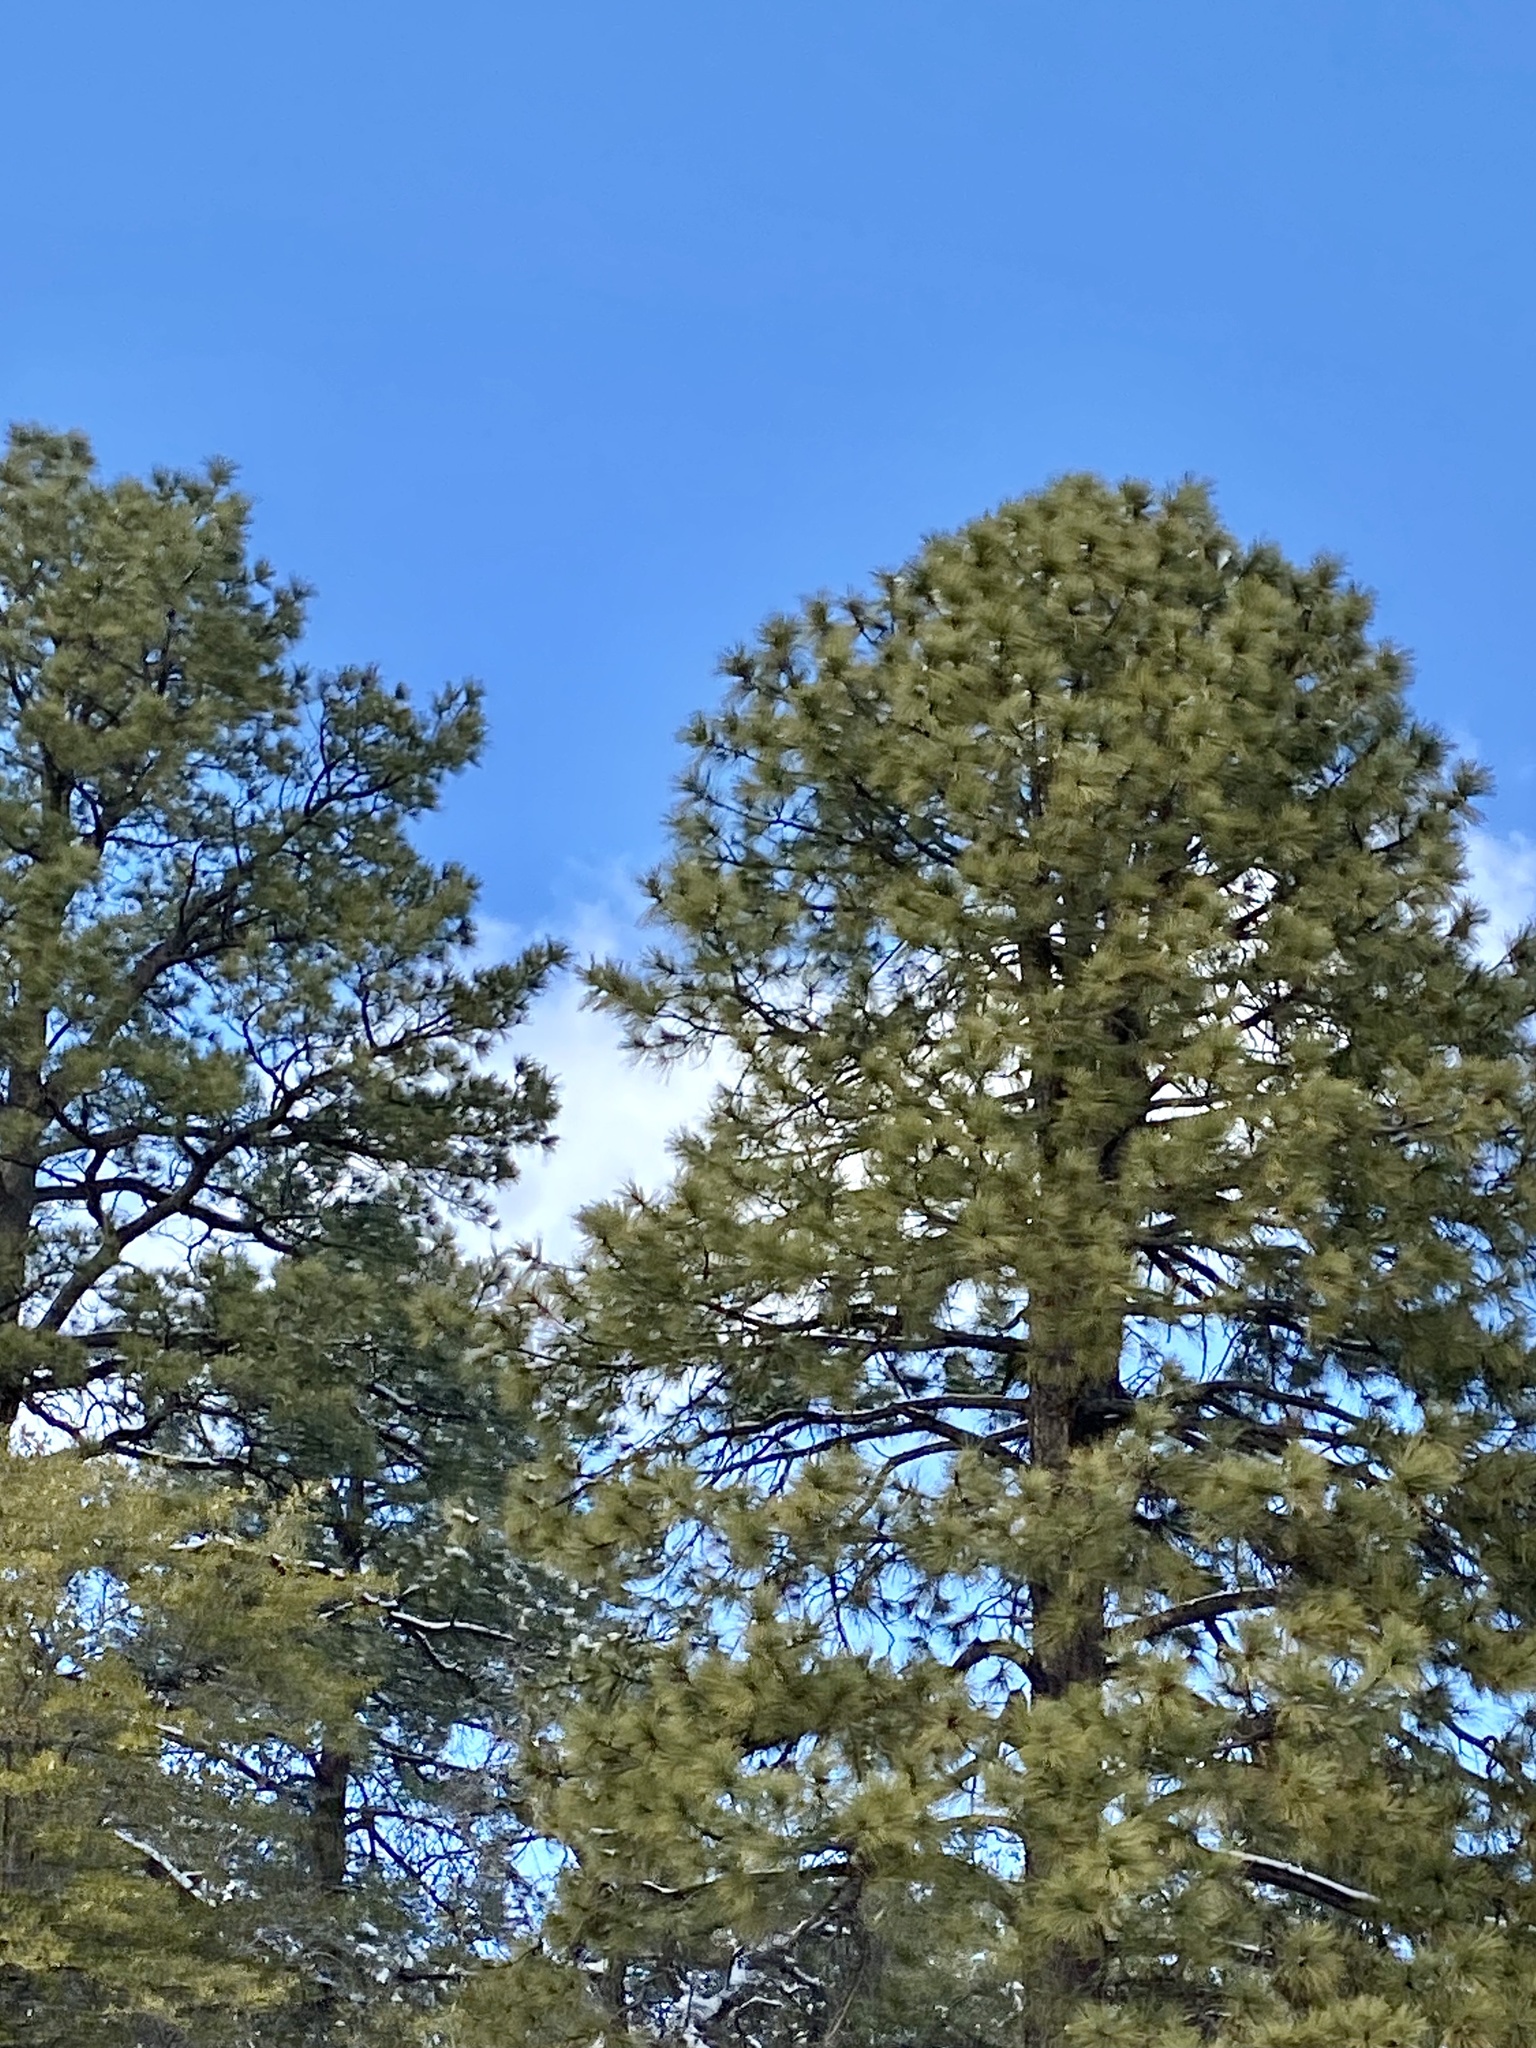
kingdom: Plantae
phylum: Tracheophyta
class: Pinopsida
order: Pinales
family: Pinaceae
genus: Pinus
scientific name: Pinus ponderosa
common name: Western yellow-pine
